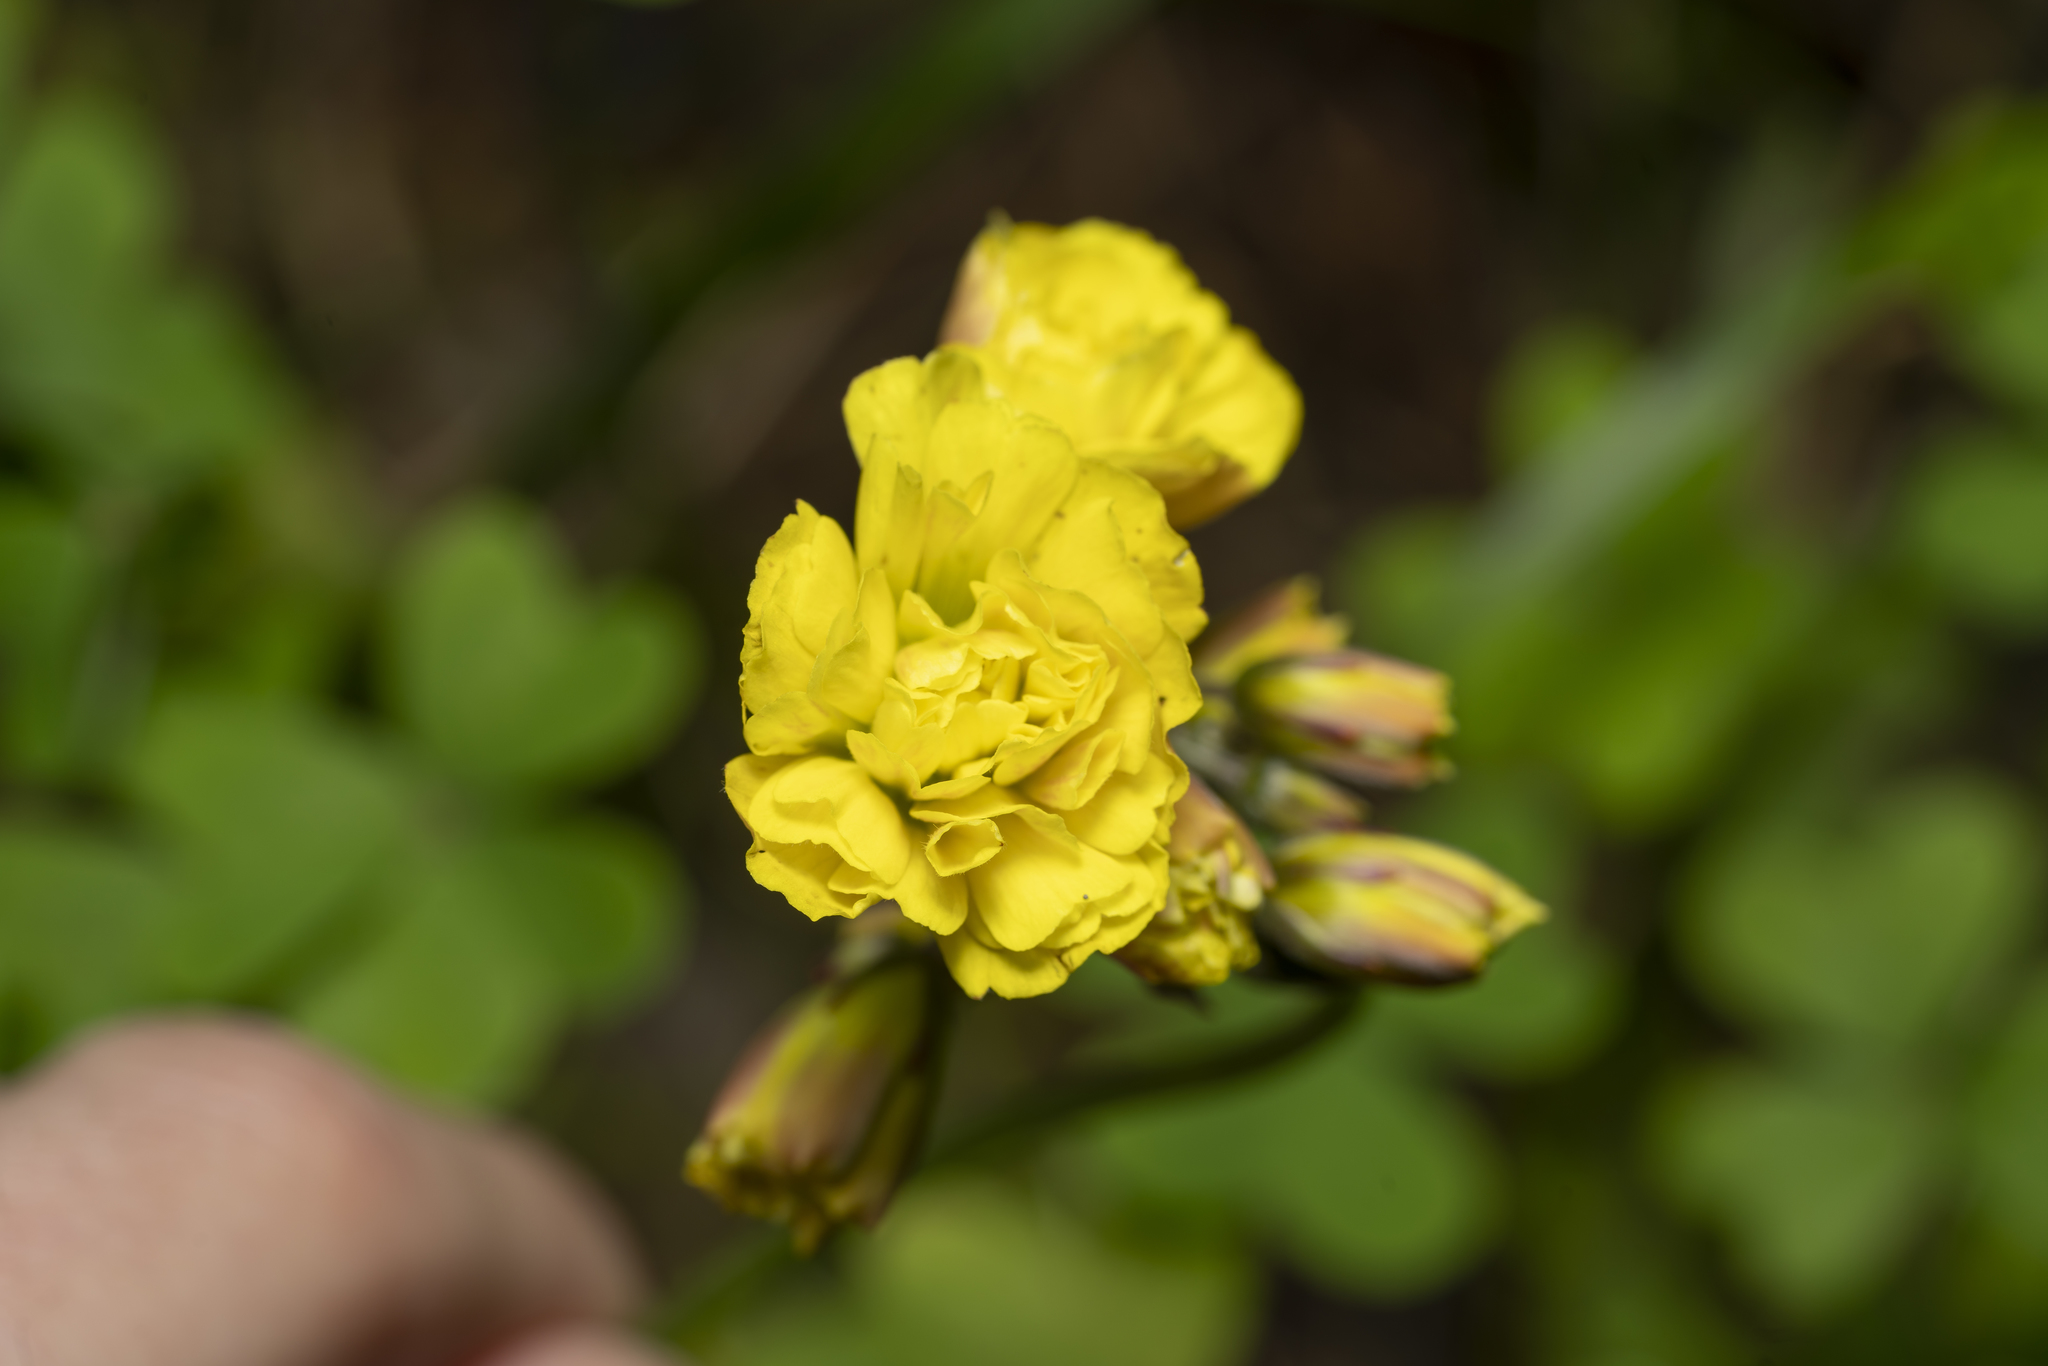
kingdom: Plantae
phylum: Tracheophyta
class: Magnoliopsida
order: Oxalidales
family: Oxalidaceae
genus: Oxalis
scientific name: Oxalis pes-caprae
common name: Bermuda-buttercup
